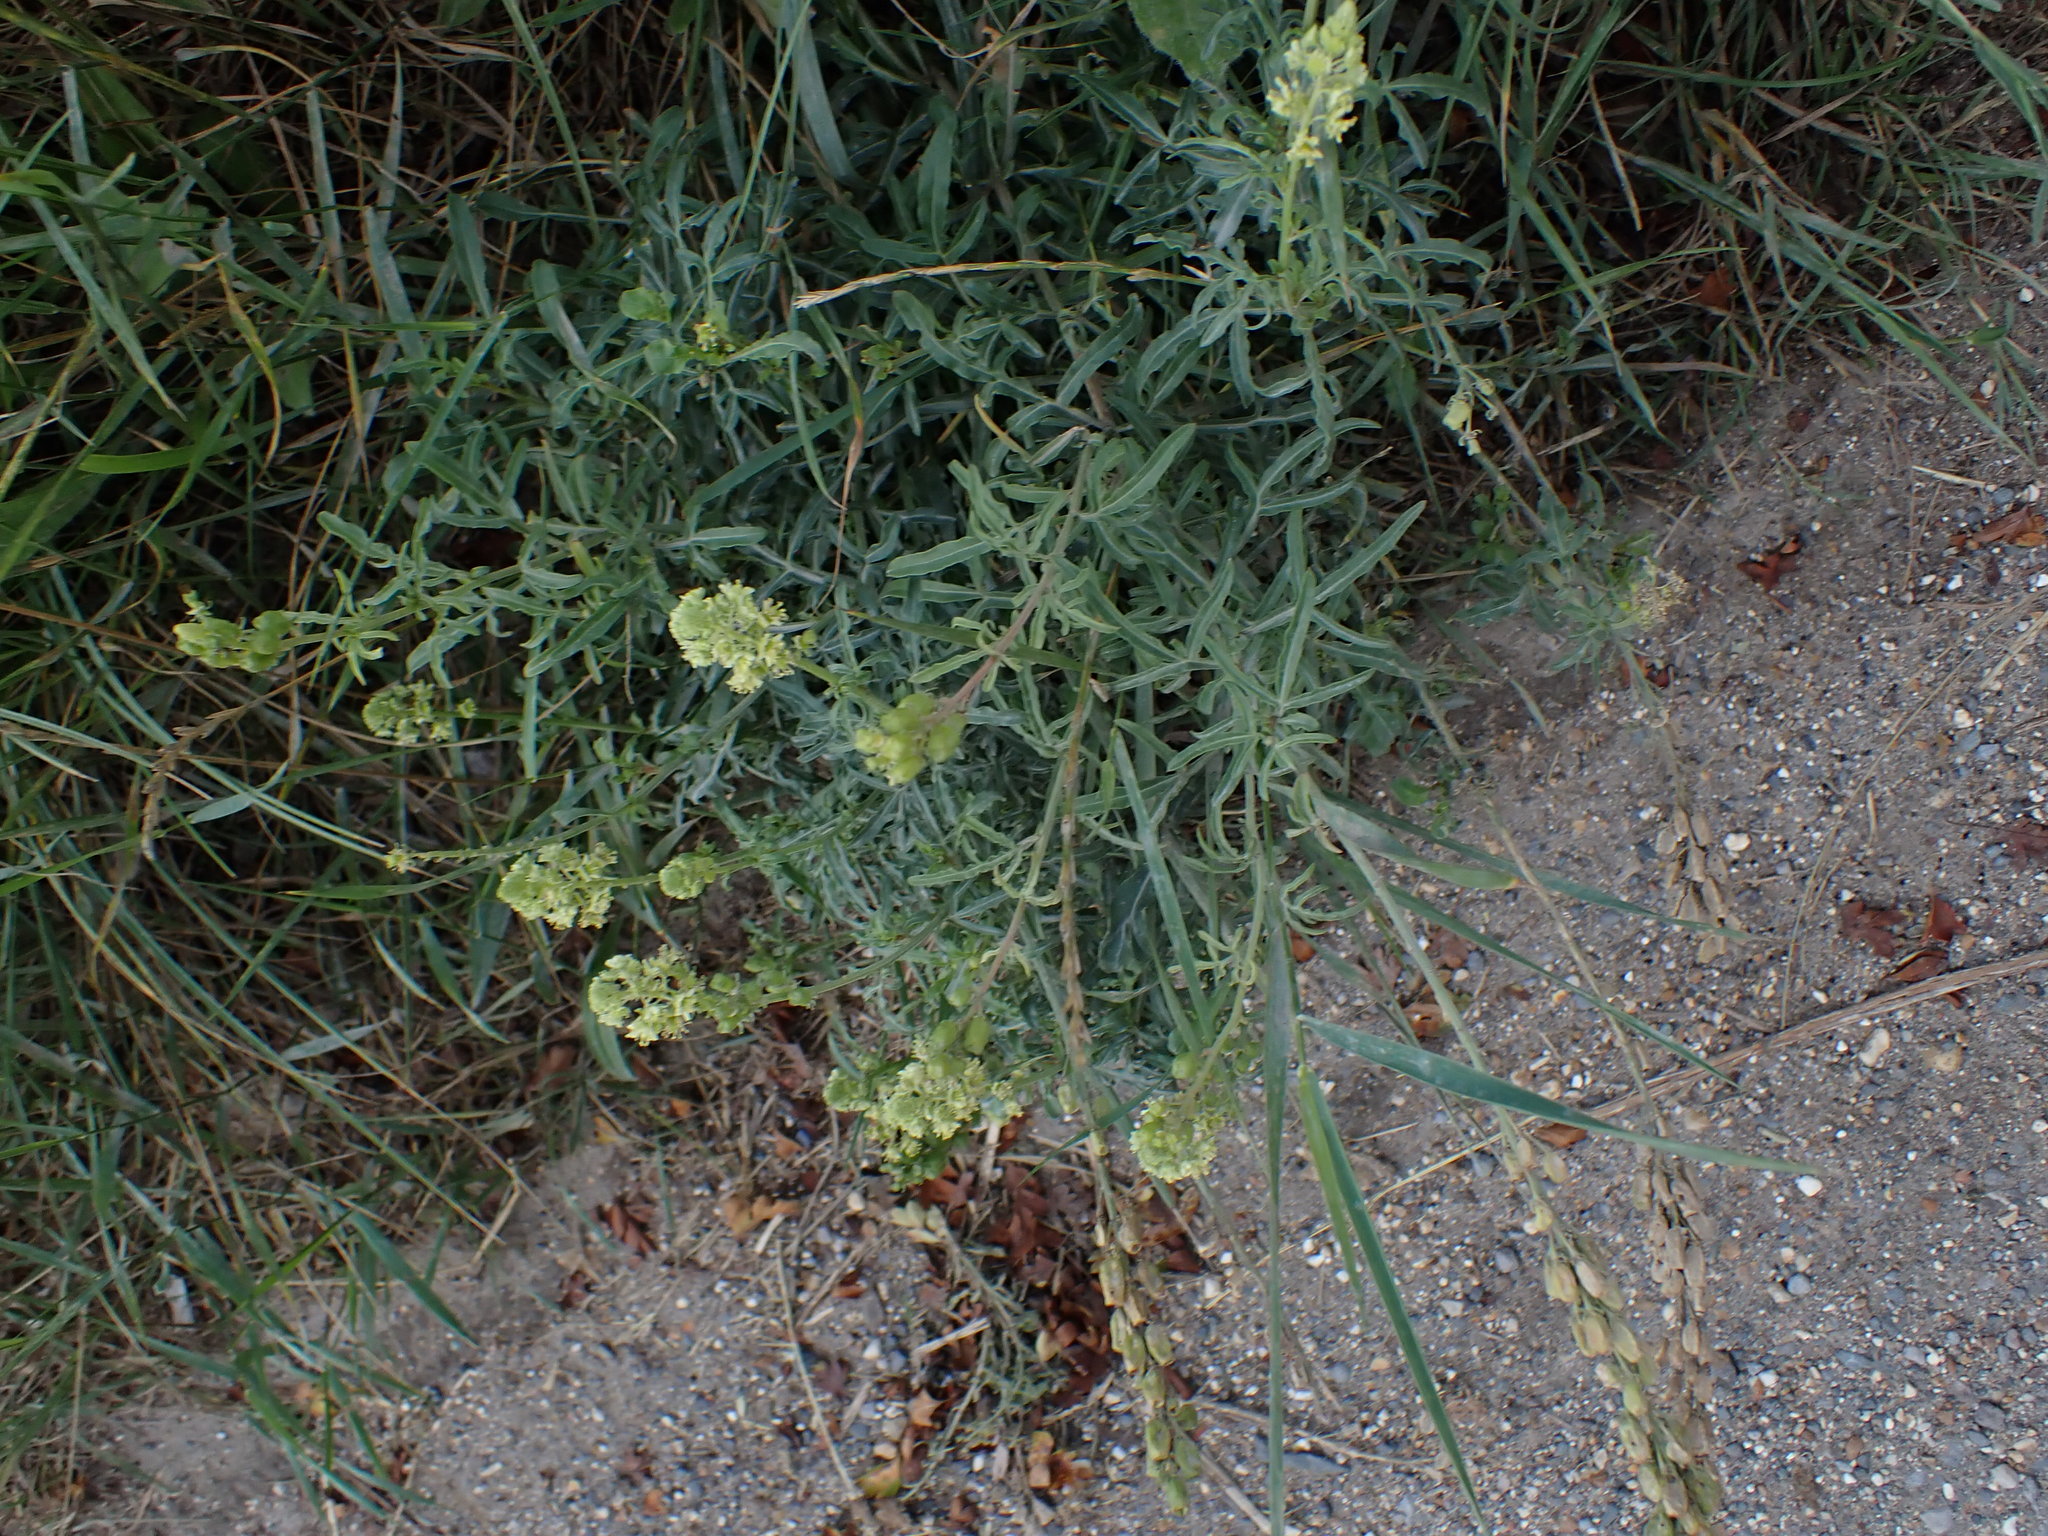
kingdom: Plantae
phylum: Tracheophyta
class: Magnoliopsida
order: Brassicales
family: Resedaceae
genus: Reseda
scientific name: Reseda lutea
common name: Wild mignonette
